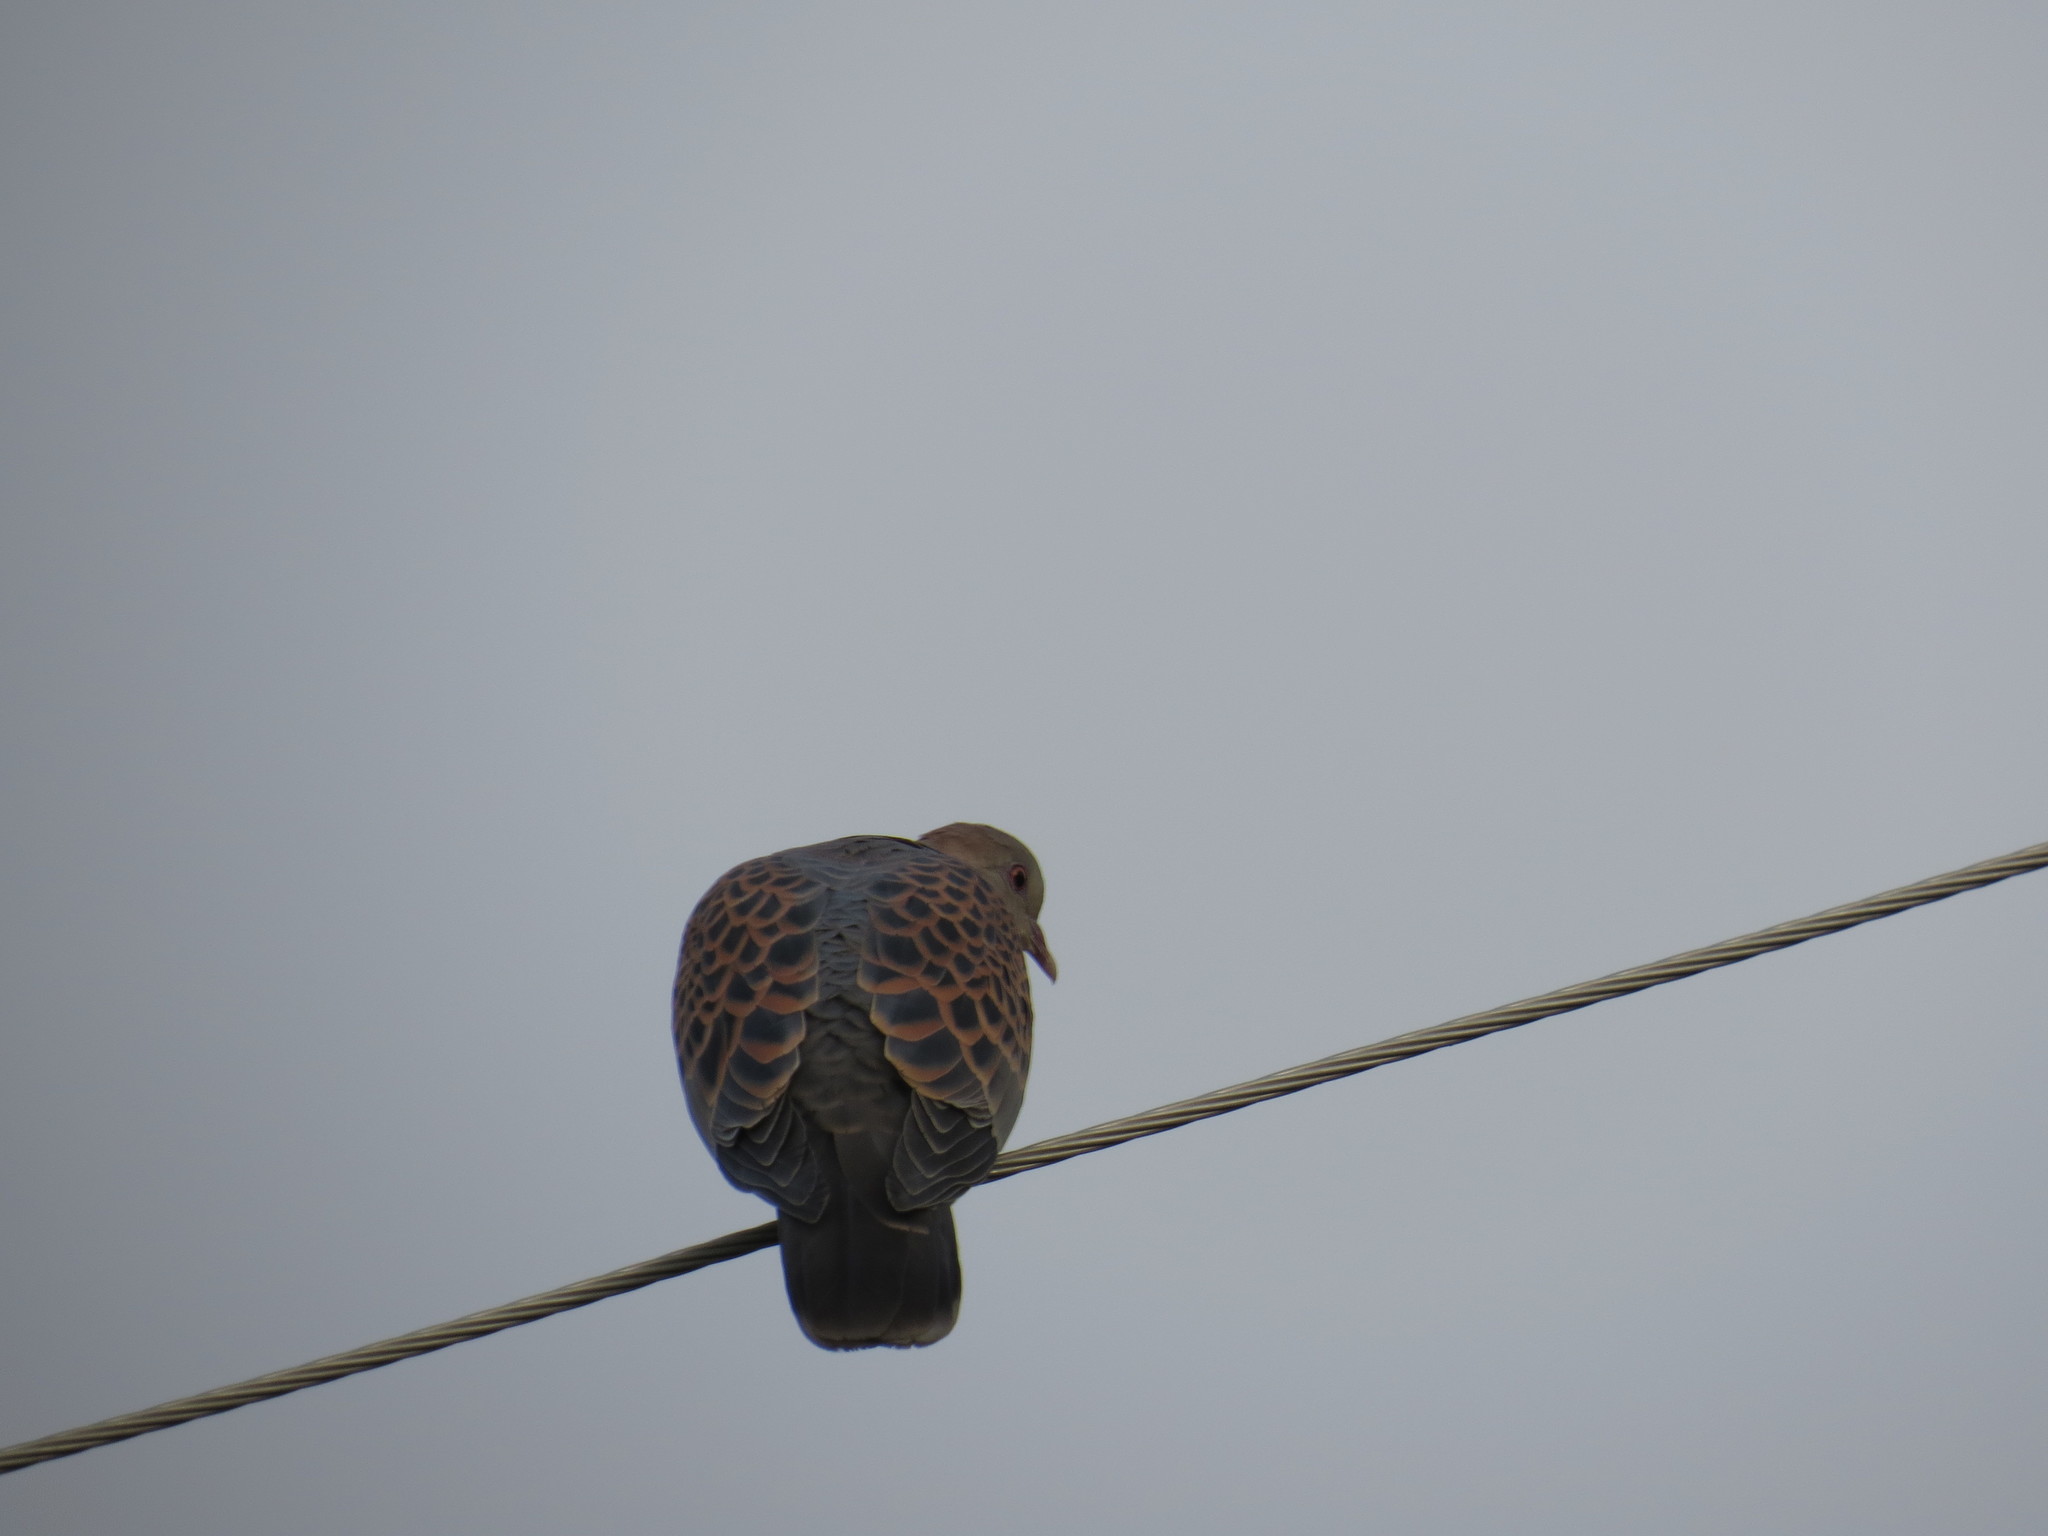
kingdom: Animalia
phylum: Chordata
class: Aves
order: Columbiformes
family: Columbidae
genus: Streptopelia
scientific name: Streptopelia orientalis
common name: Oriental turtle dove
